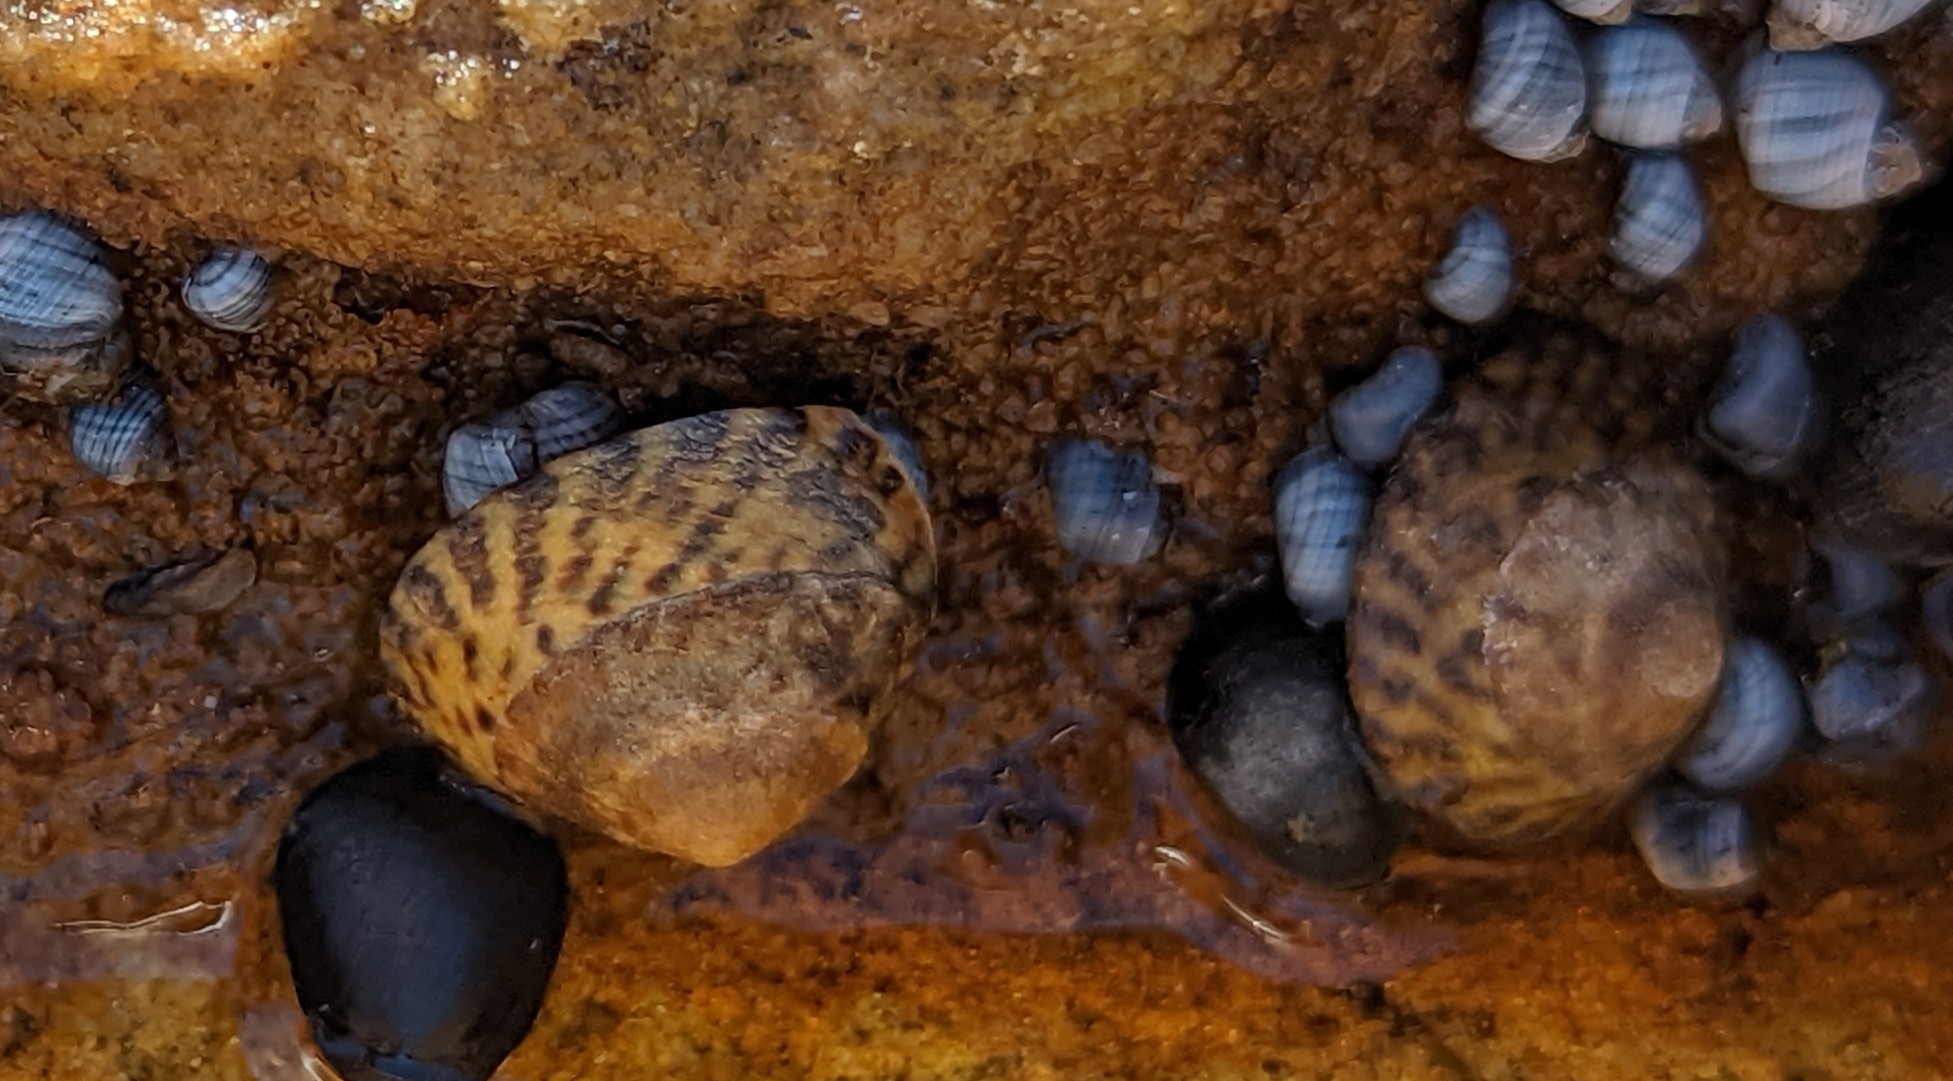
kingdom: Animalia
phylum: Mollusca
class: Gastropoda
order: Littorinimorpha
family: Littorinidae
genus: Bembicium
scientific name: Bembicium nanum
